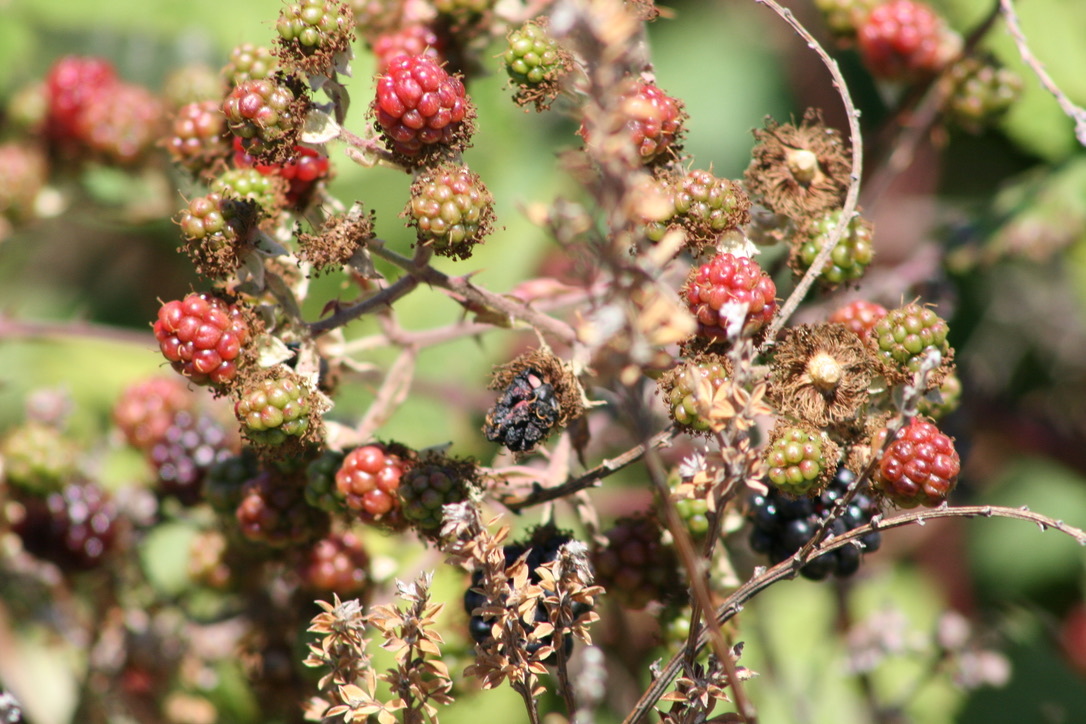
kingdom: Plantae
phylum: Tracheophyta
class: Magnoliopsida
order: Rosales
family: Rosaceae
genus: Rubus
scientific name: Rubus armeniacus
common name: Himalayan blackberry
